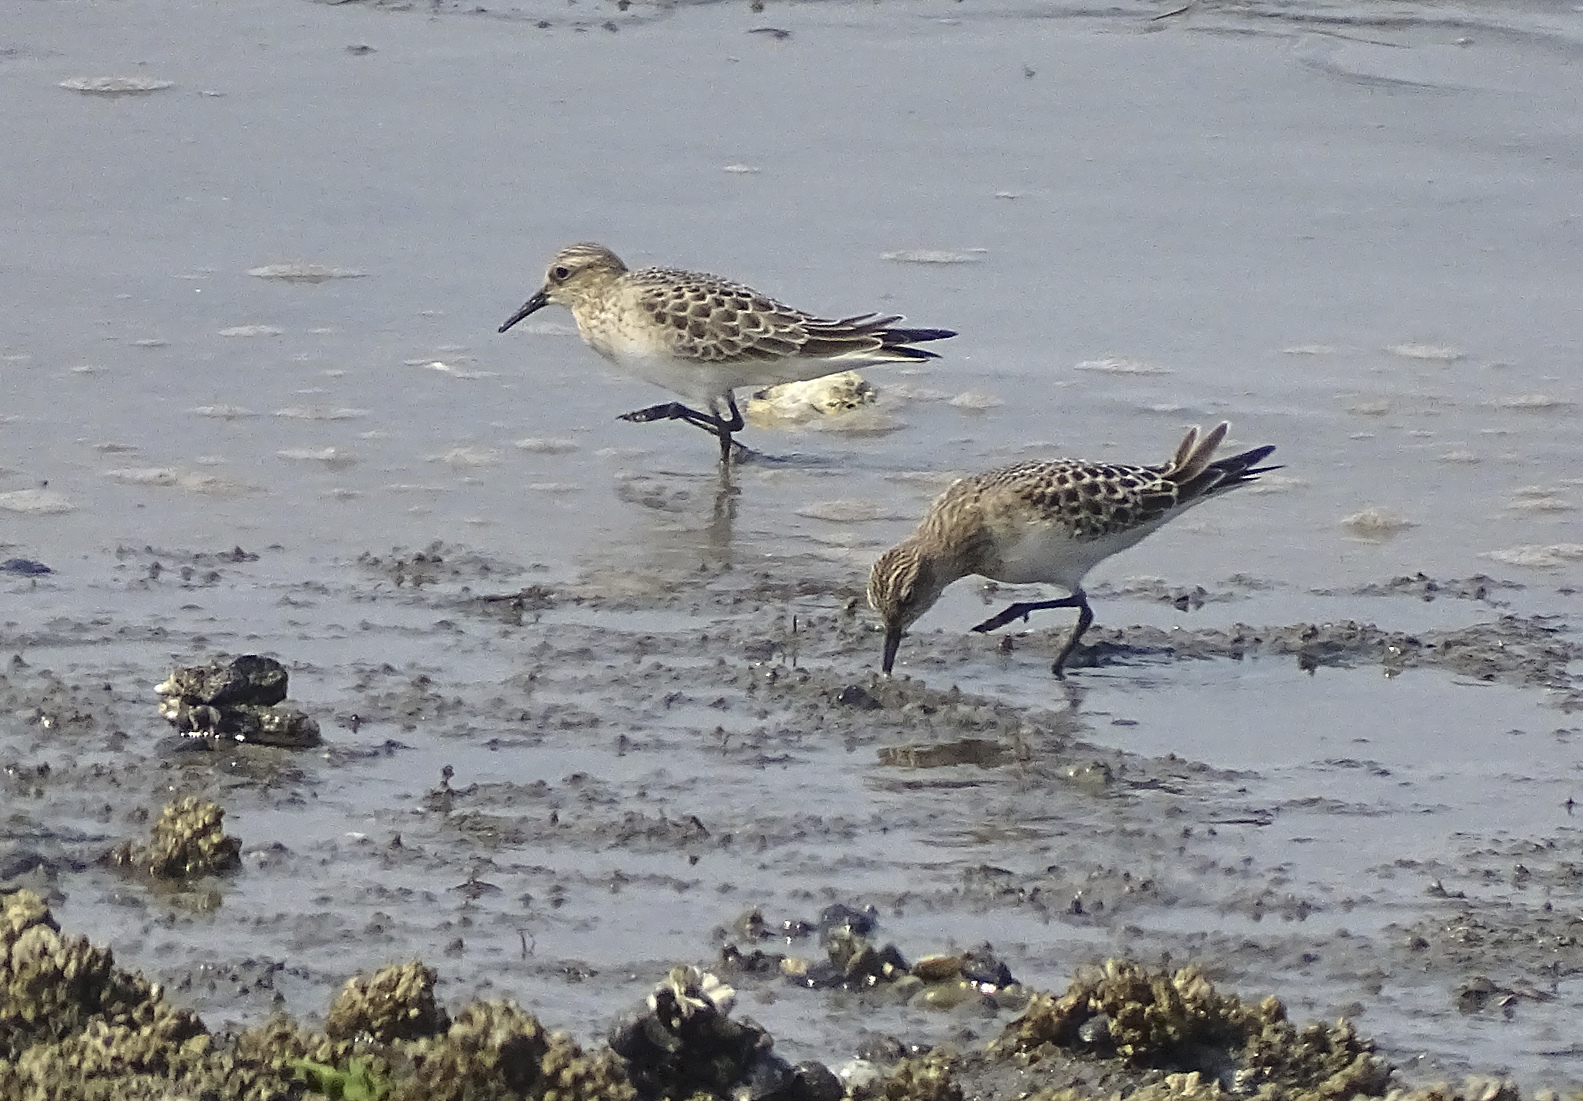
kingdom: Animalia
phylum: Chordata
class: Aves
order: Charadriiformes
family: Scolopacidae
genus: Calidris
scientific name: Calidris bairdii
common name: Baird's sandpiper
